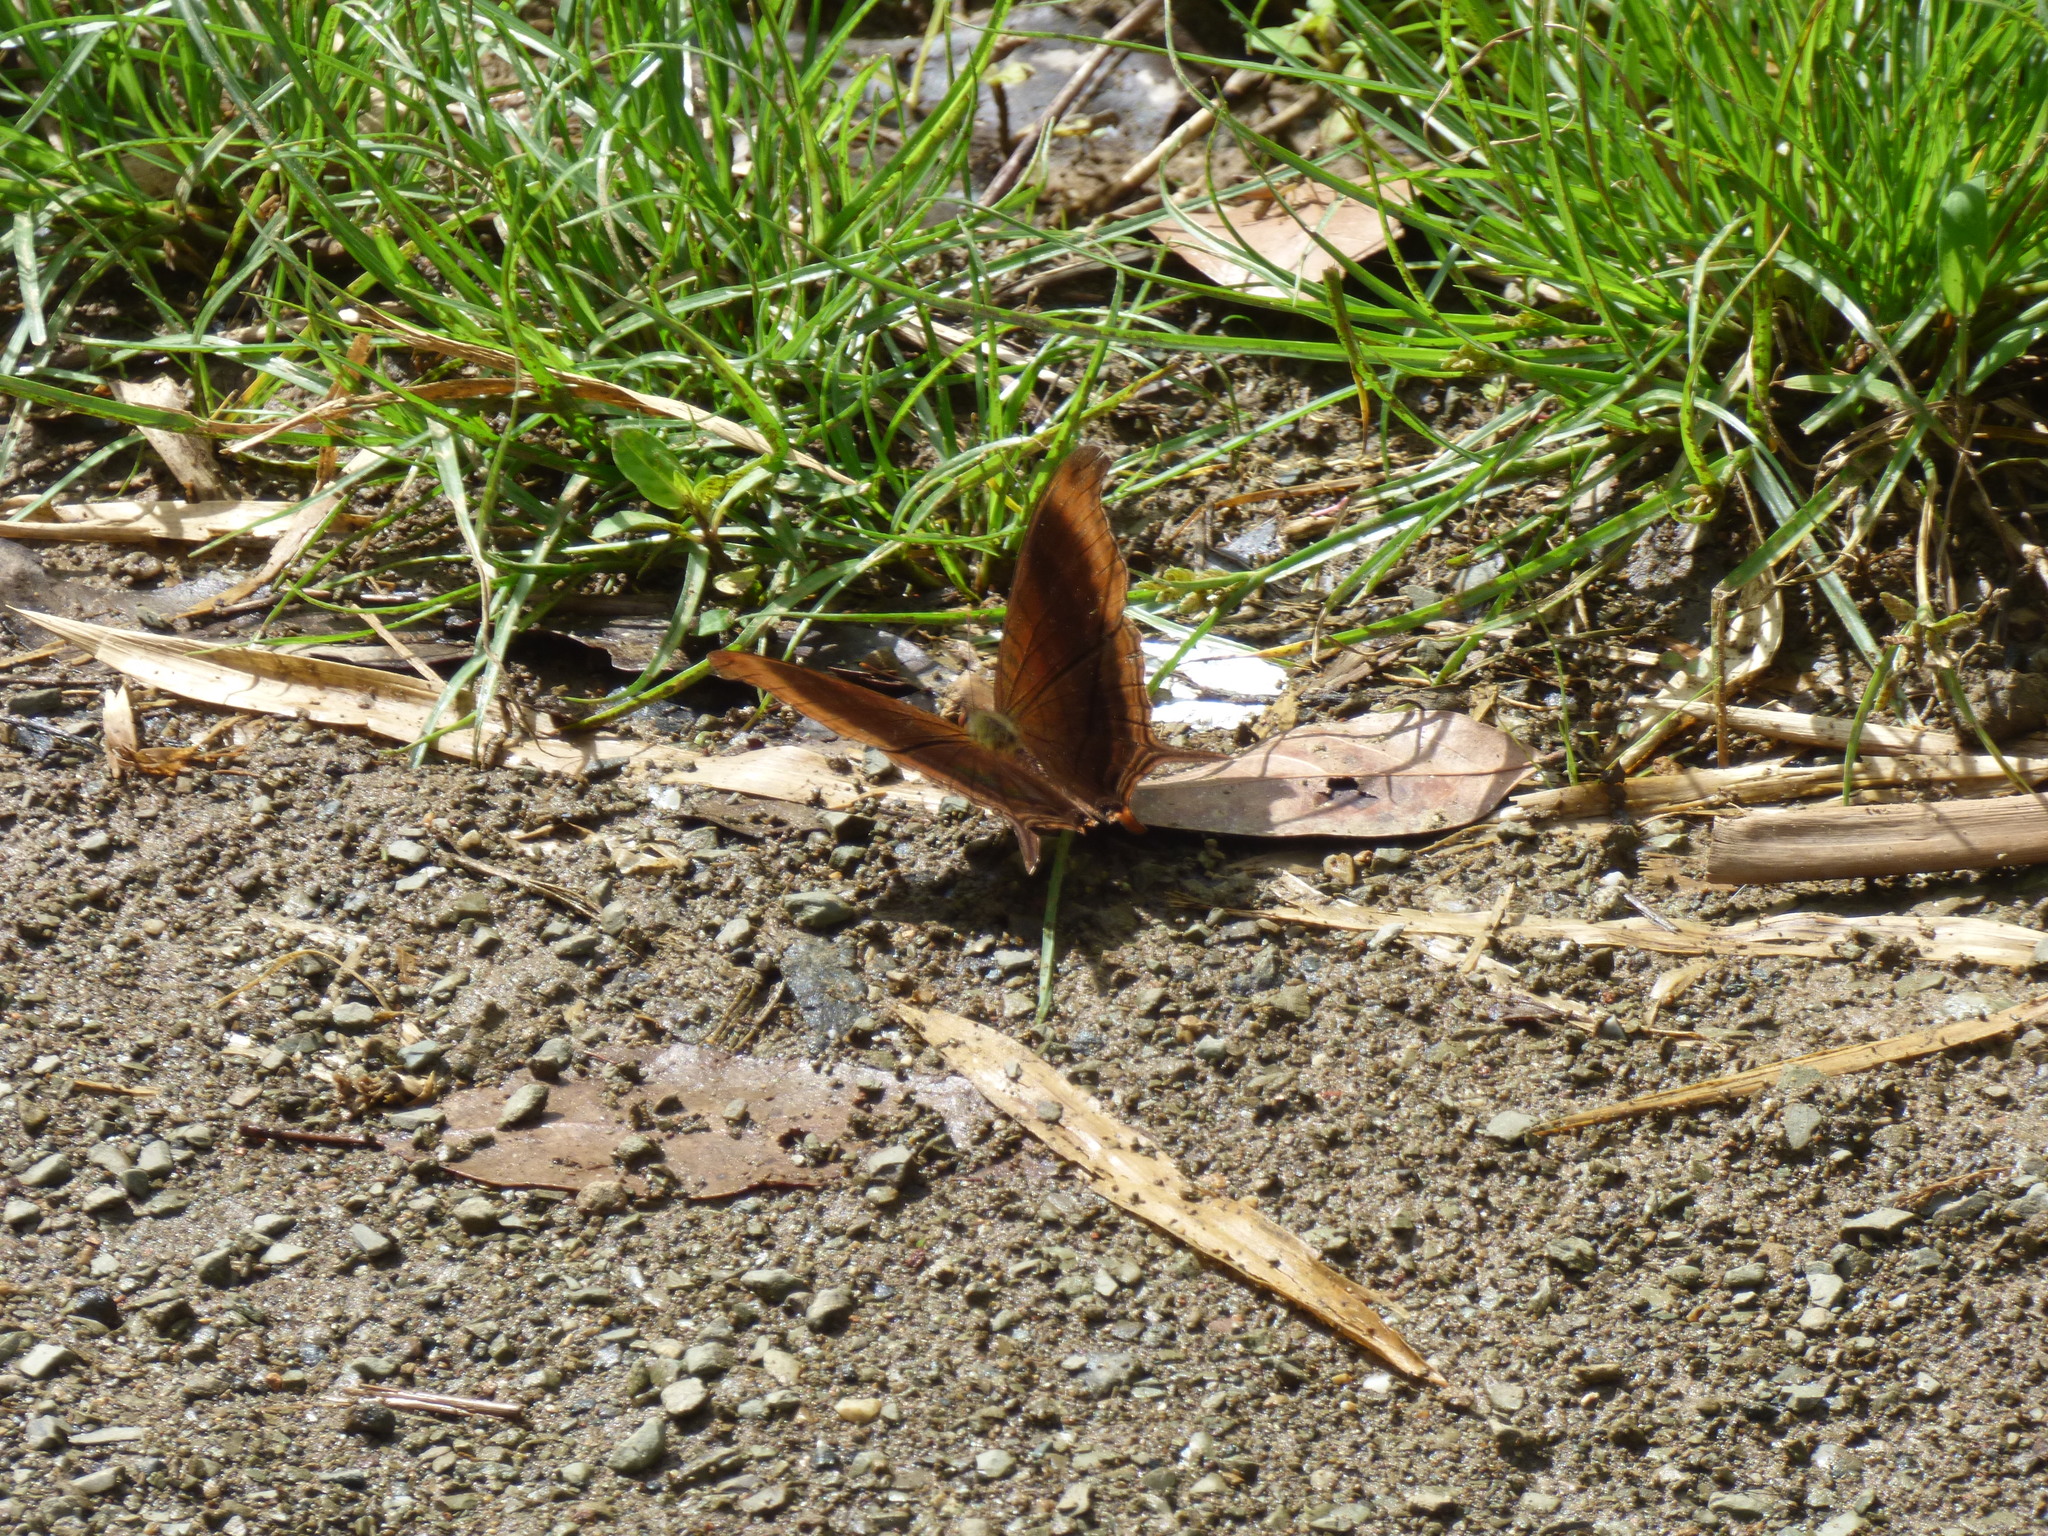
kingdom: Animalia
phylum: Arthropoda
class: Insecta
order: Lepidoptera
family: Nymphalidae
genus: Marpesia
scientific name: Marpesia zerynthia
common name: Waiter daggerwing
